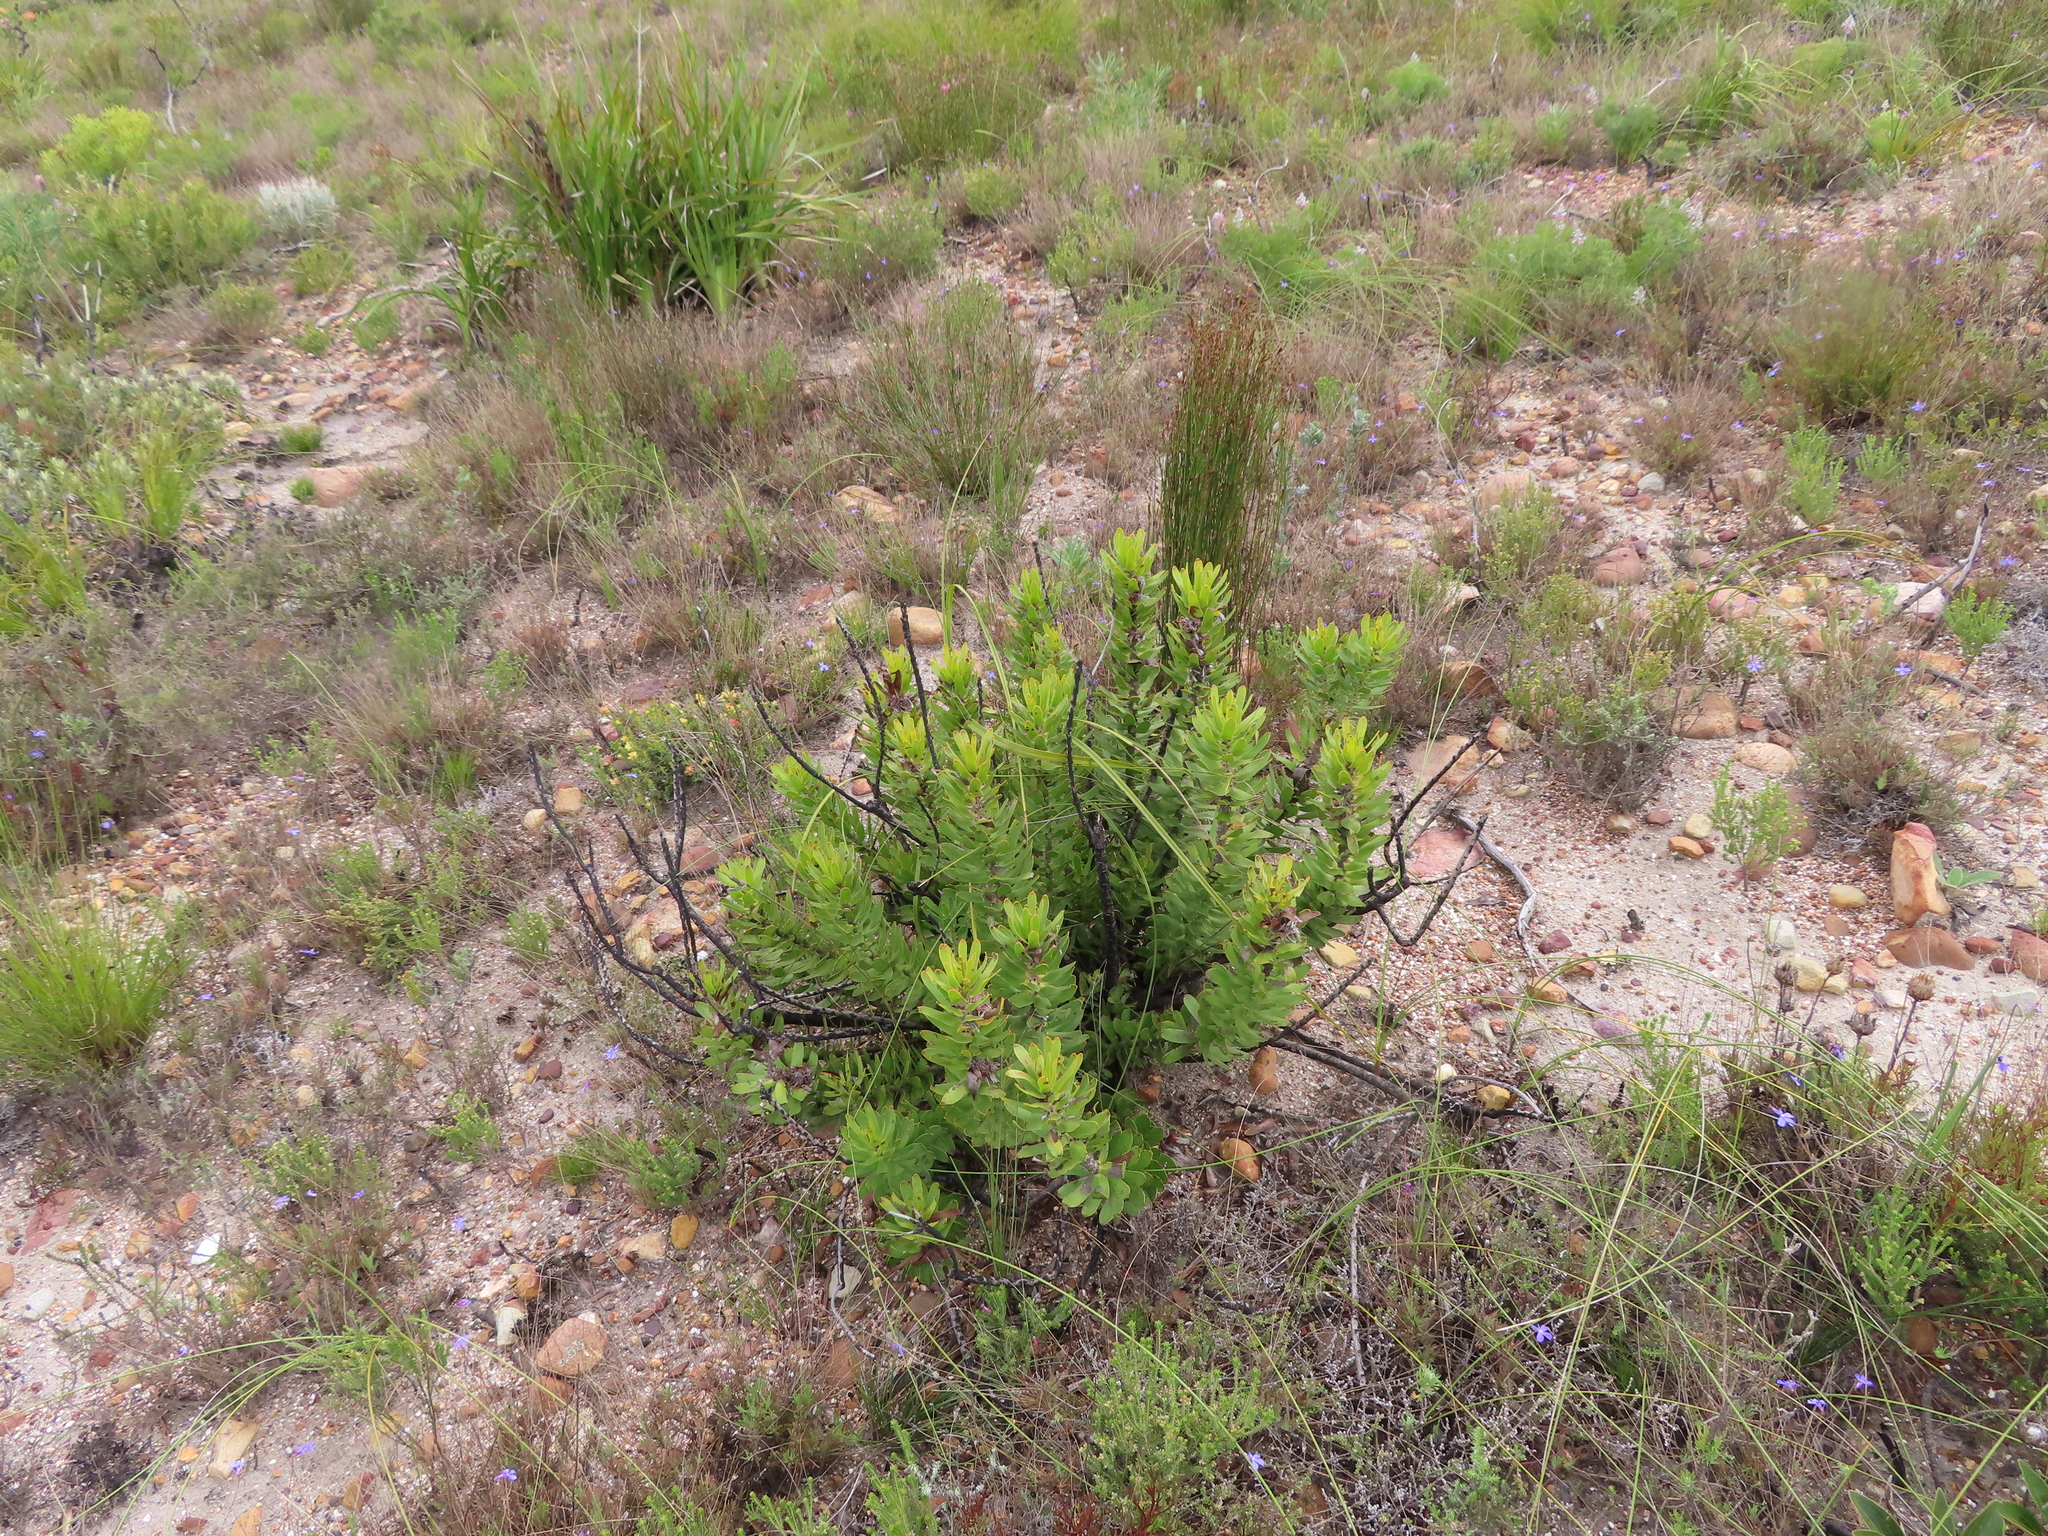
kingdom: Plantae
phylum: Tracheophyta
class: Magnoliopsida
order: Proteales
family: Proteaceae
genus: Mimetes
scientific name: Mimetes cucullatus
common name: Common pagoda
